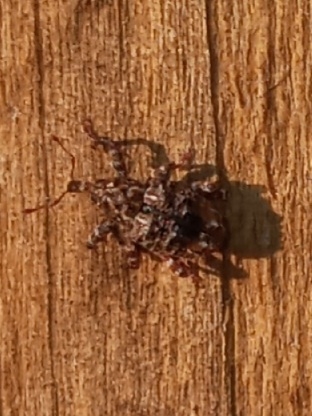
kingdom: Animalia
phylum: Arthropoda
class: Insecta
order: Coleoptera
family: Curculionidae
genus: Conotrachelus
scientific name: Conotrachelus nenuphar
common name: Plum curculio
